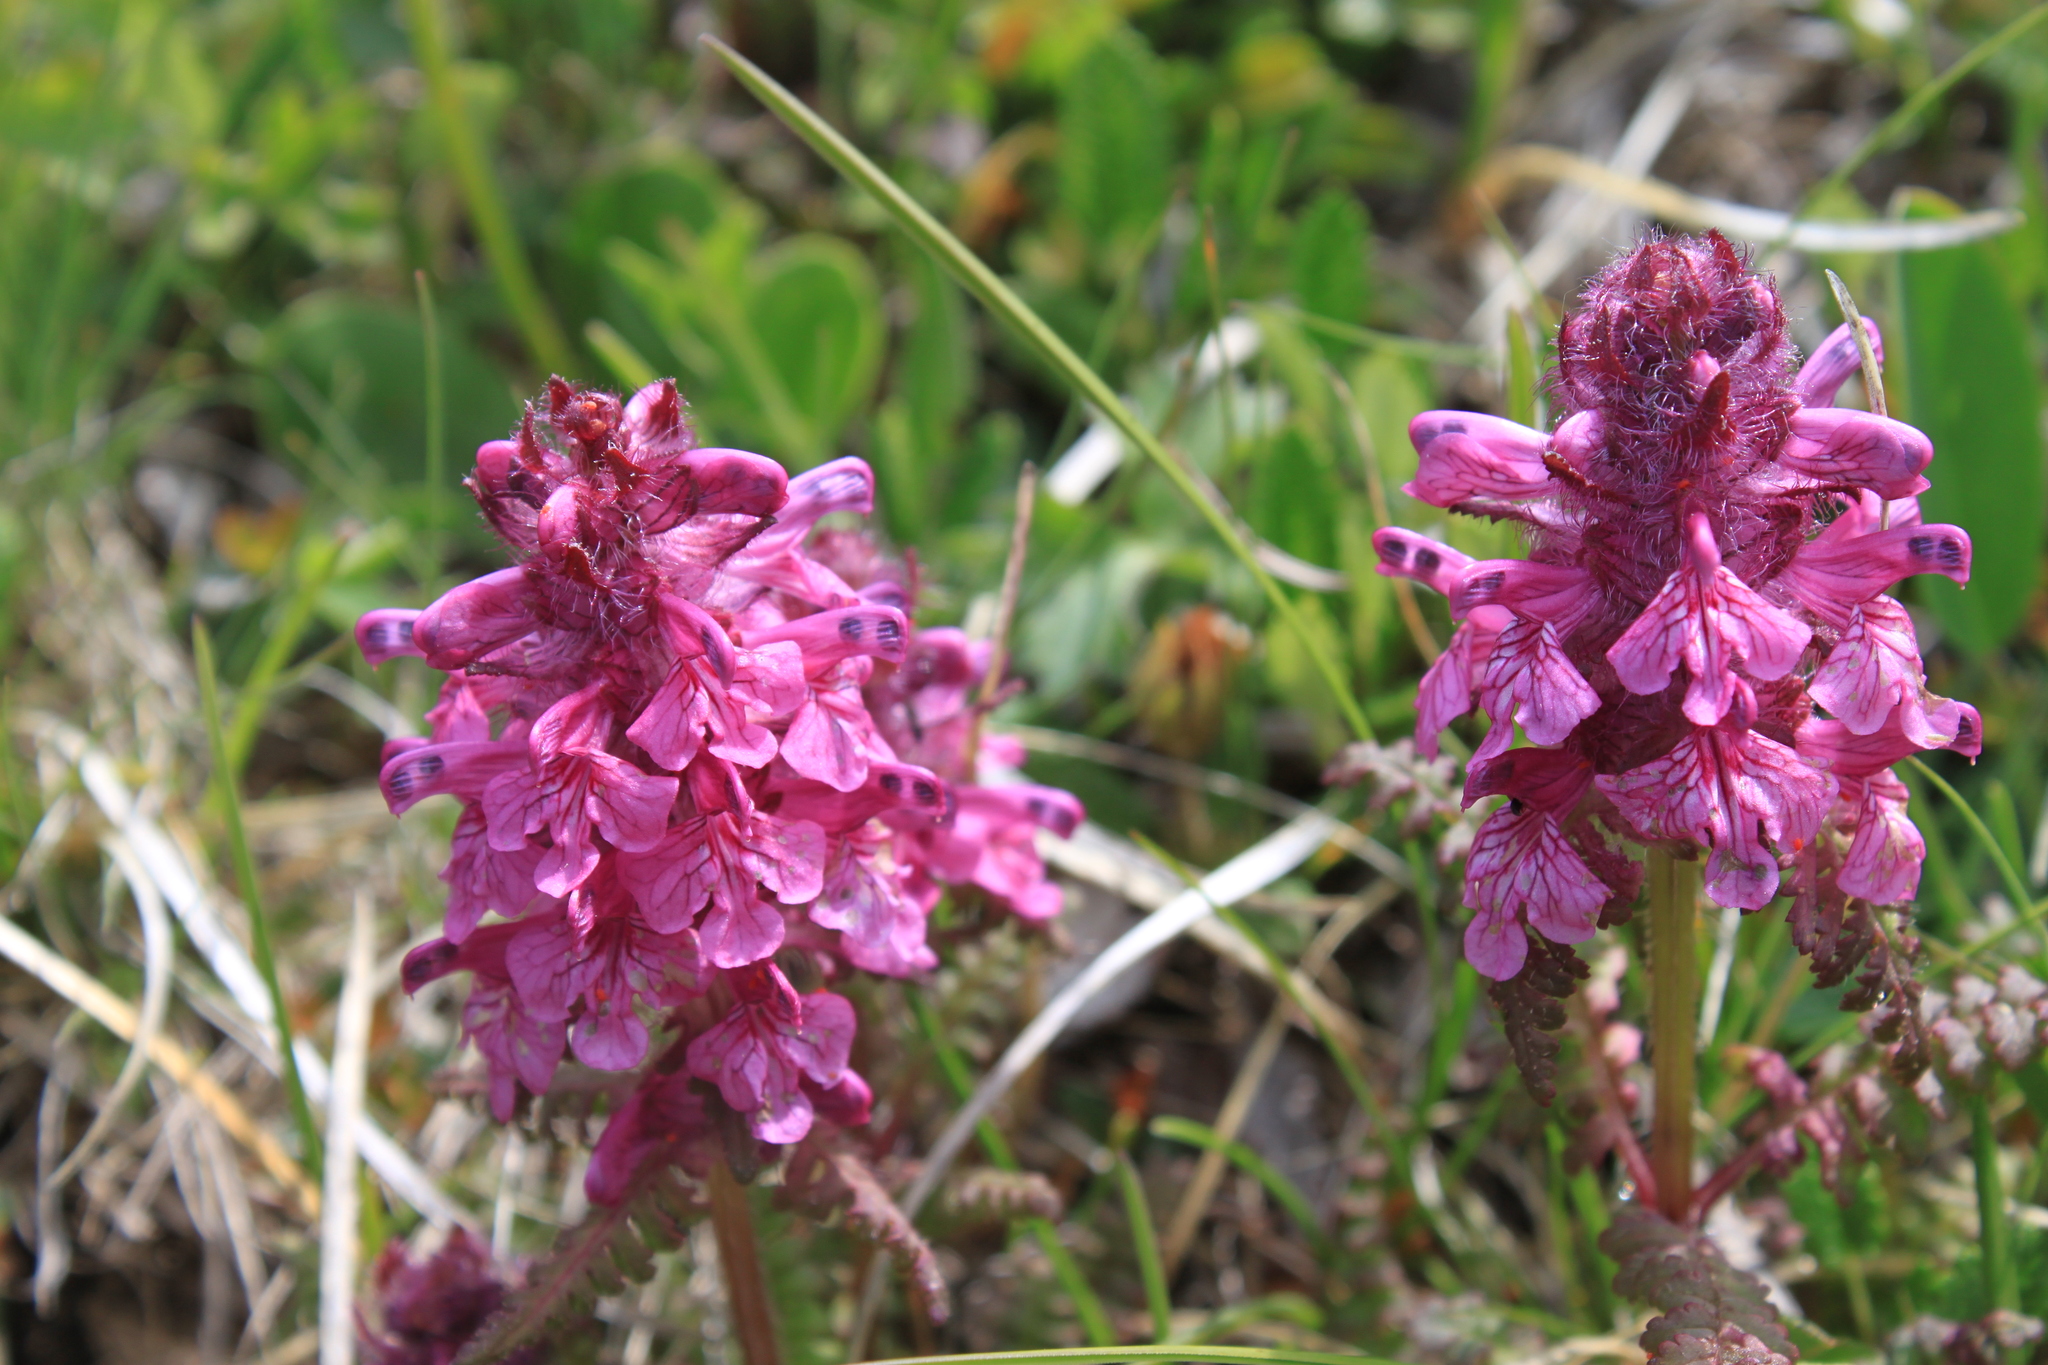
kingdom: Plantae
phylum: Tracheophyta
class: Magnoliopsida
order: Lamiales
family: Orobanchaceae
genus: Pedicularis
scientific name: Pedicularis verticillata
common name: Whorled lousewort
